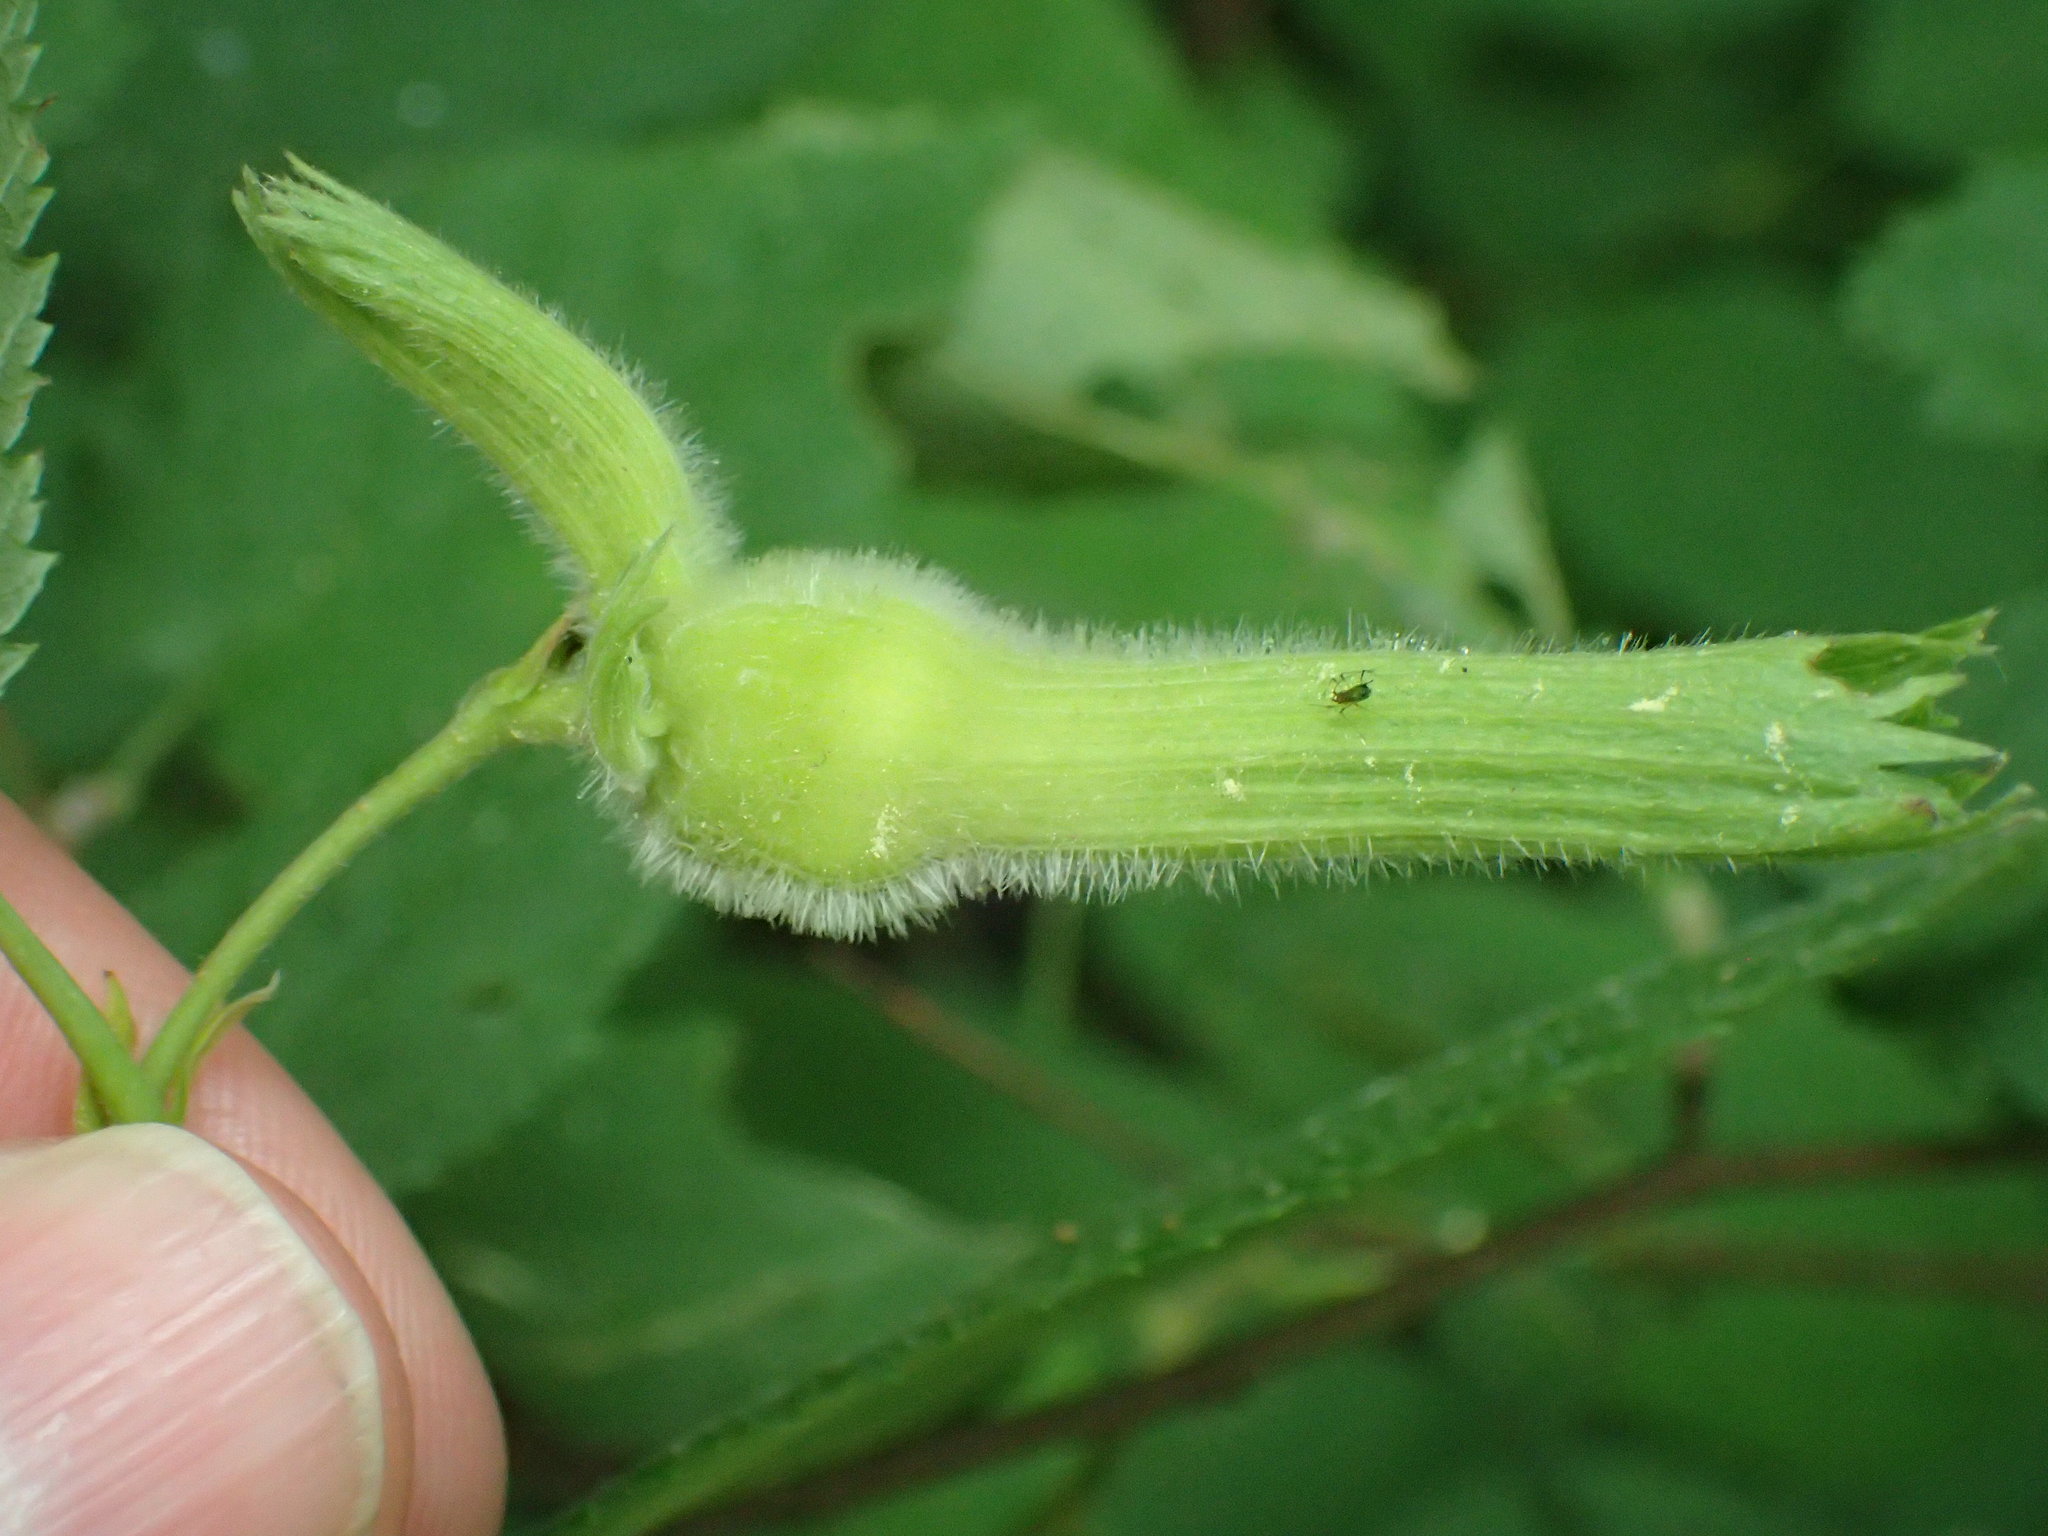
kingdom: Plantae
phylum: Tracheophyta
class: Magnoliopsida
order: Fagales
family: Betulaceae
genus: Corylus
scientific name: Corylus cornuta
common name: Beaked hazel
